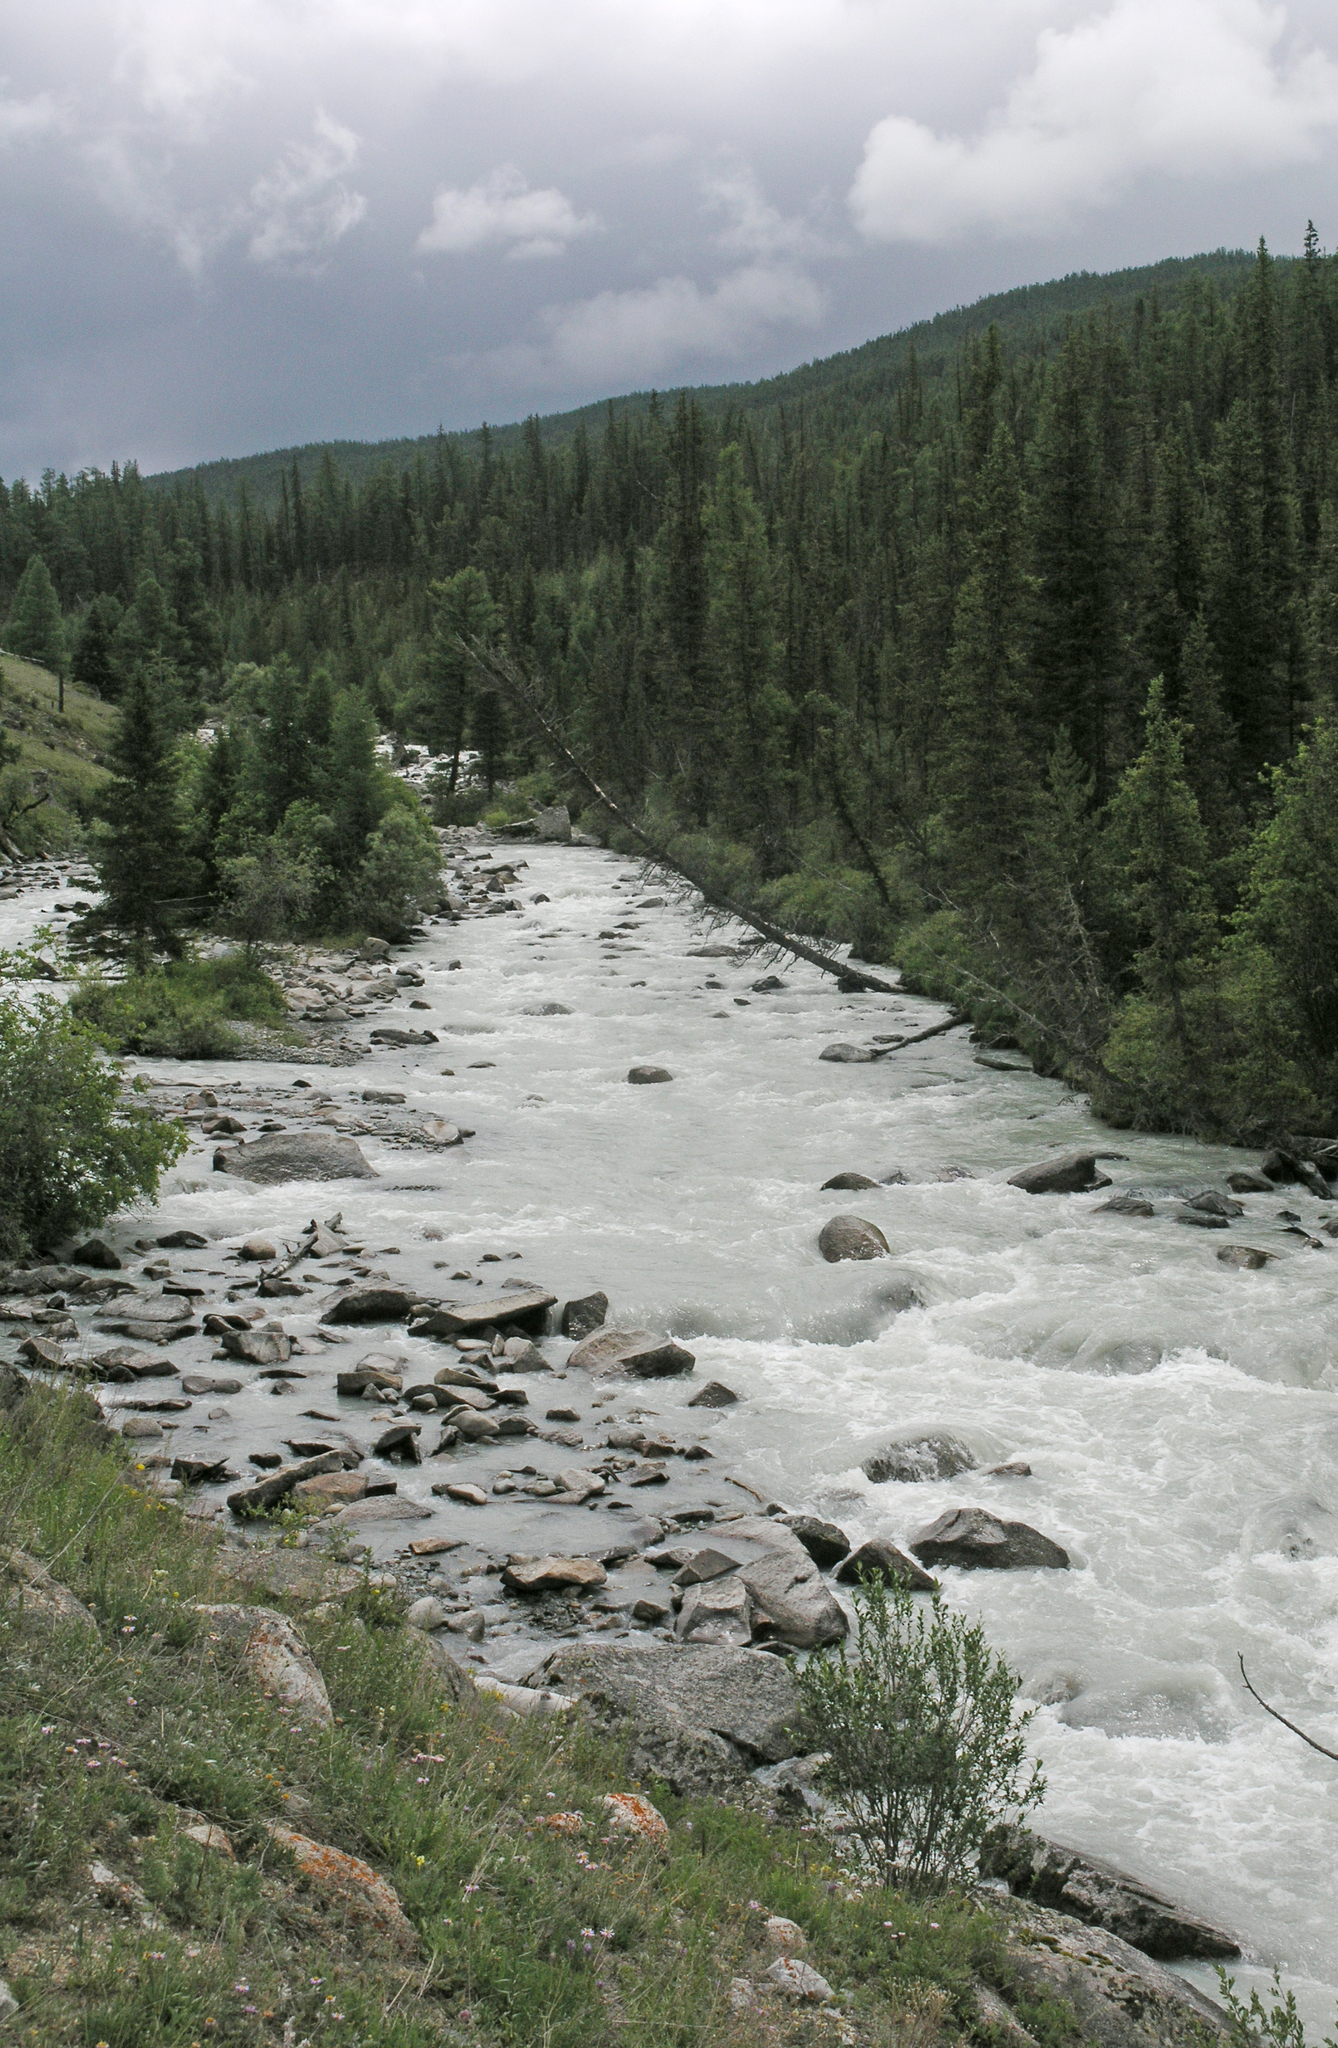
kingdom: Plantae
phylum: Tracheophyta
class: Pinopsida
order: Pinales
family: Pinaceae
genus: Larix
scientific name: Larix sibirica
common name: Siberian larch
